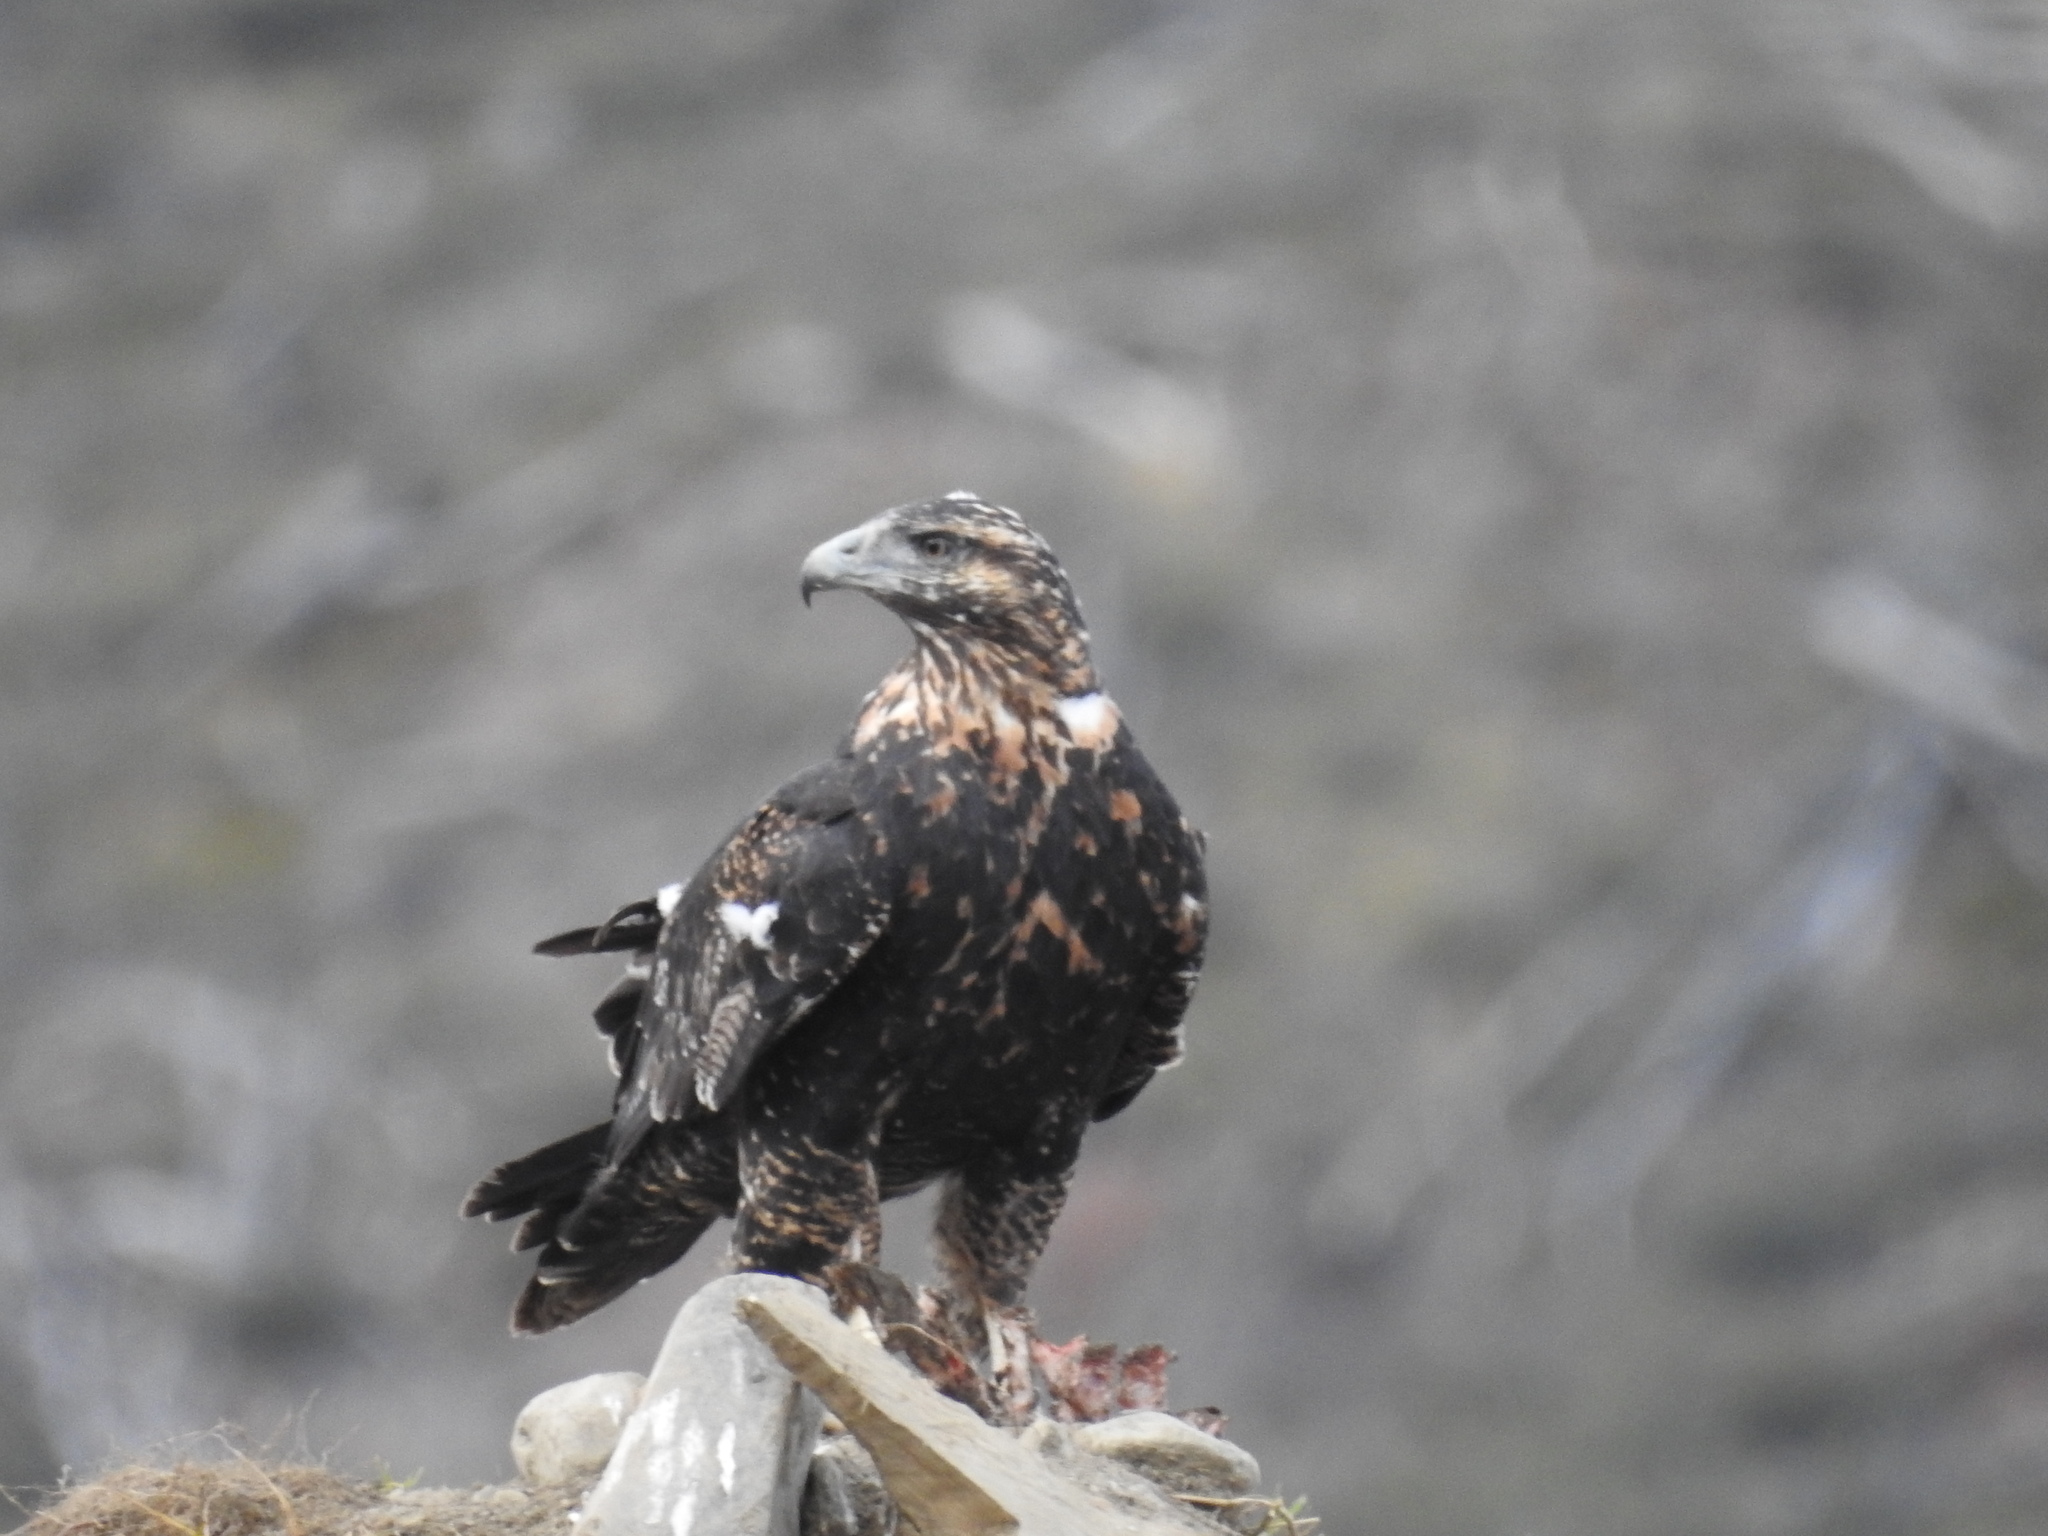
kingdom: Animalia
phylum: Chordata
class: Aves
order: Accipitriformes
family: Accipitridae
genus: Geranoaetus
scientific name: Geranoaetus melanoleucus
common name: Black-chested buzzard-eagle
